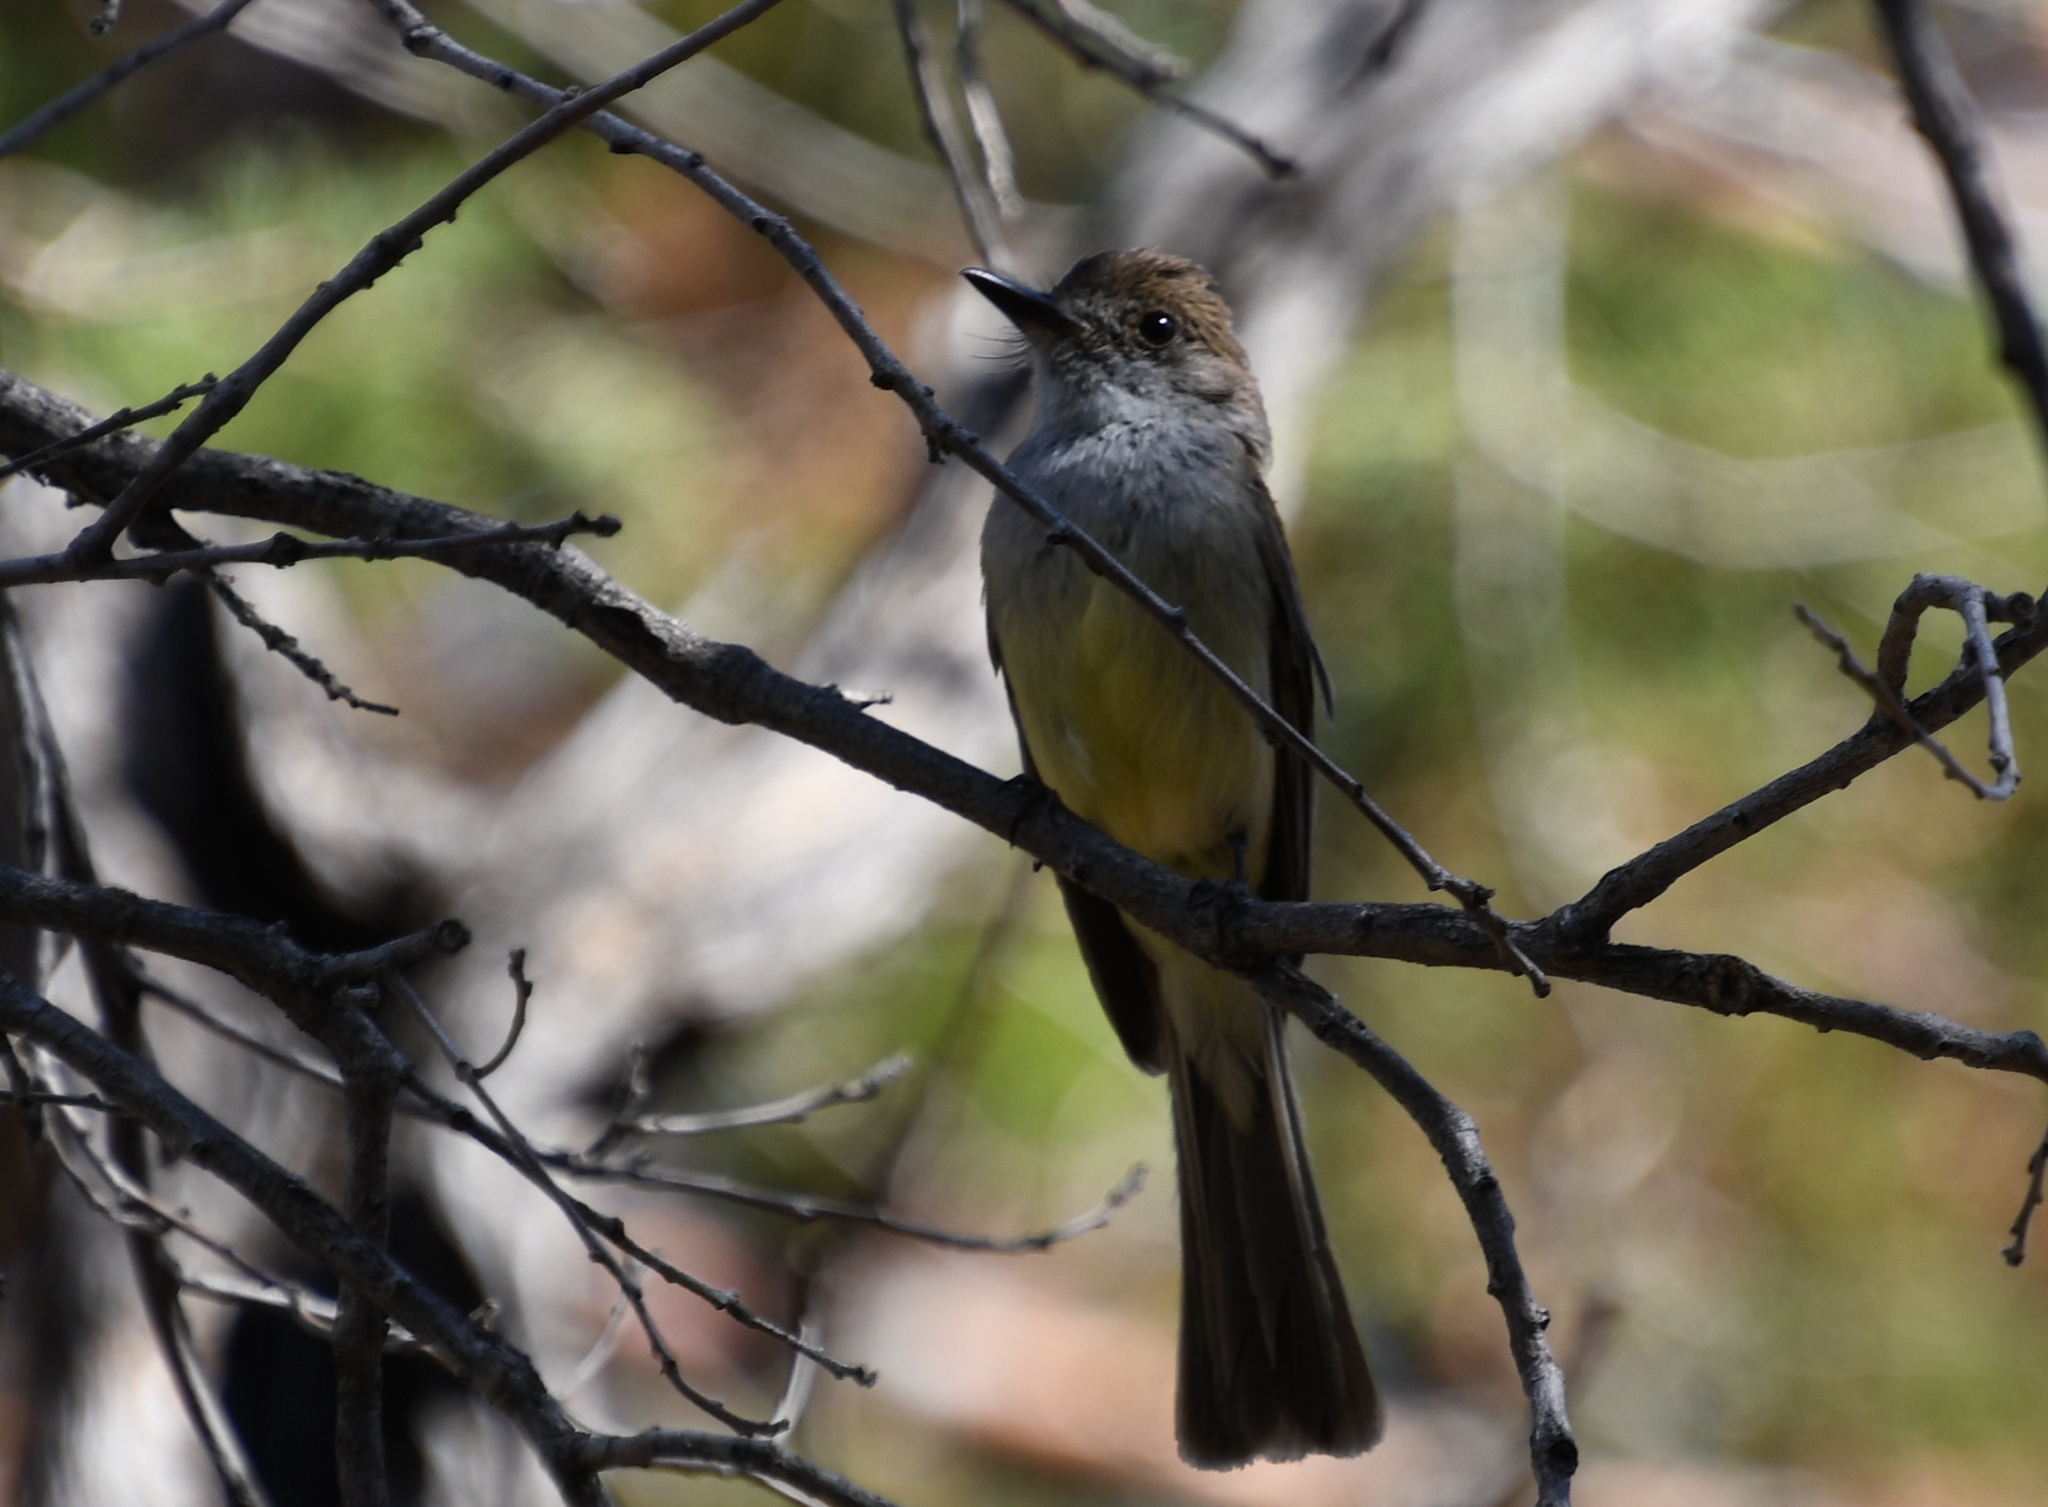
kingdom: Animalia
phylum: Chordata
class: Aves
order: Passeriformes
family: Tyrannidae
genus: Myiarchus
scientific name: Myiarchus tuberculifer
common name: Dusky-capped flycatcher
